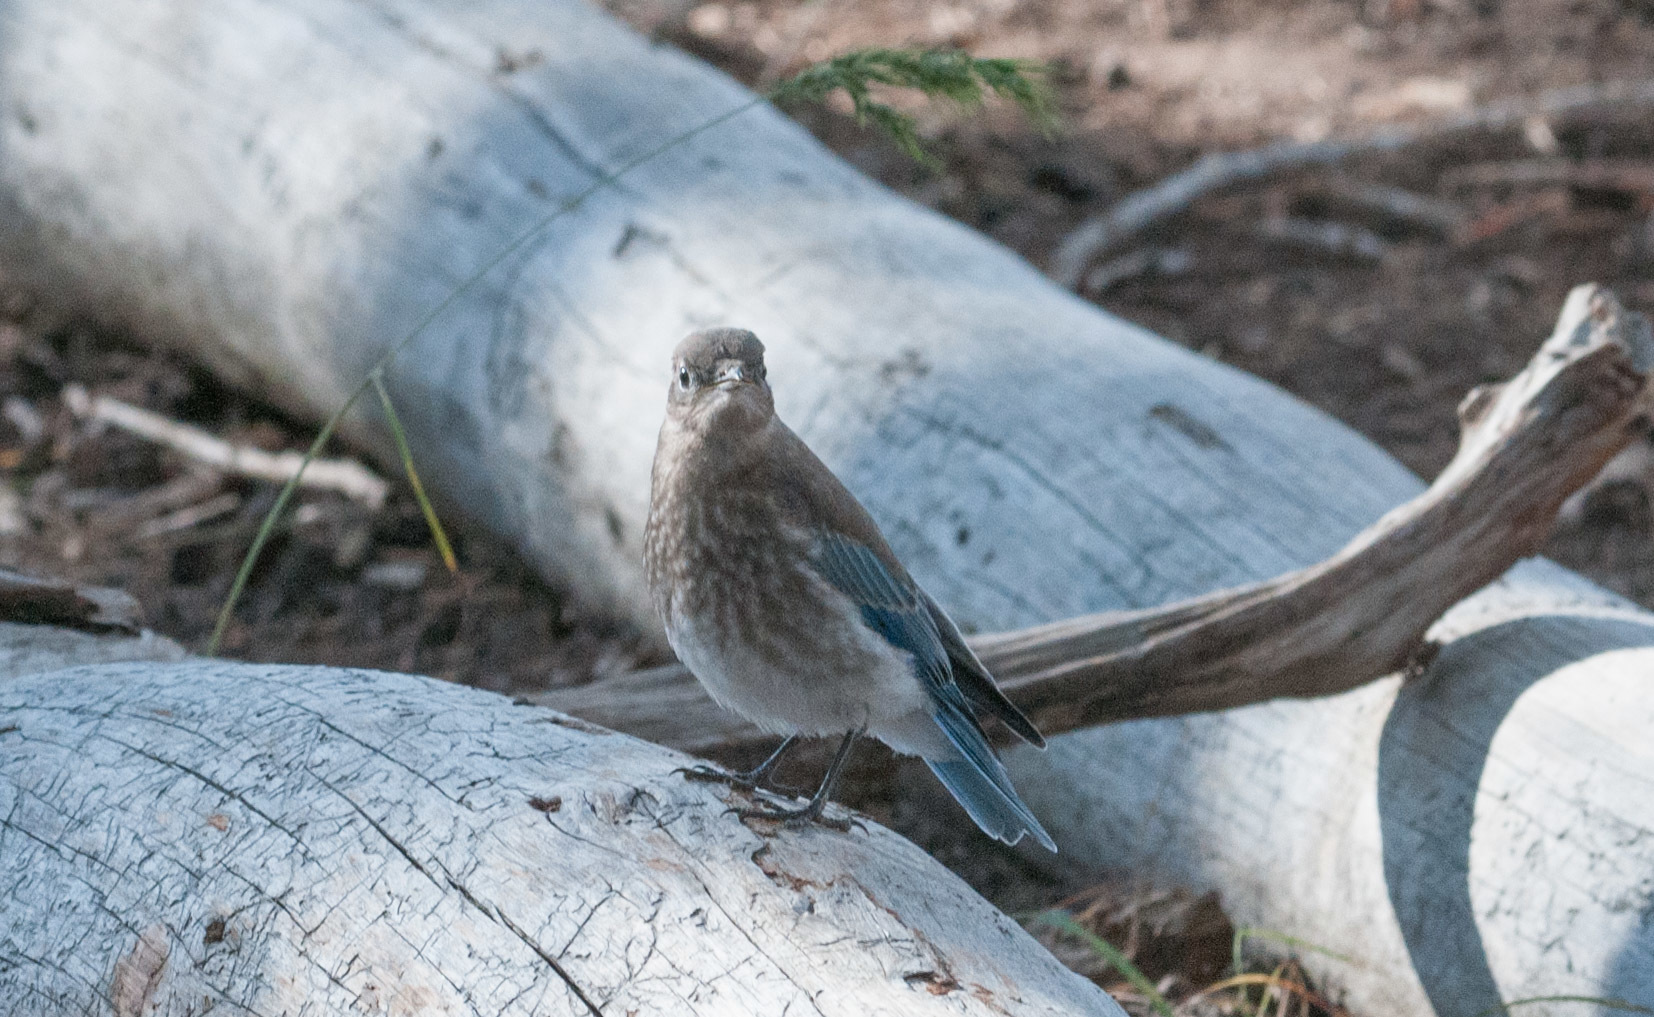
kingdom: Animalia
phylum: Chordata
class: Aves
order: Passeriformes
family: Turdidae
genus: Sialia
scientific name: Sialia currucoides
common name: Mountain bluebird
